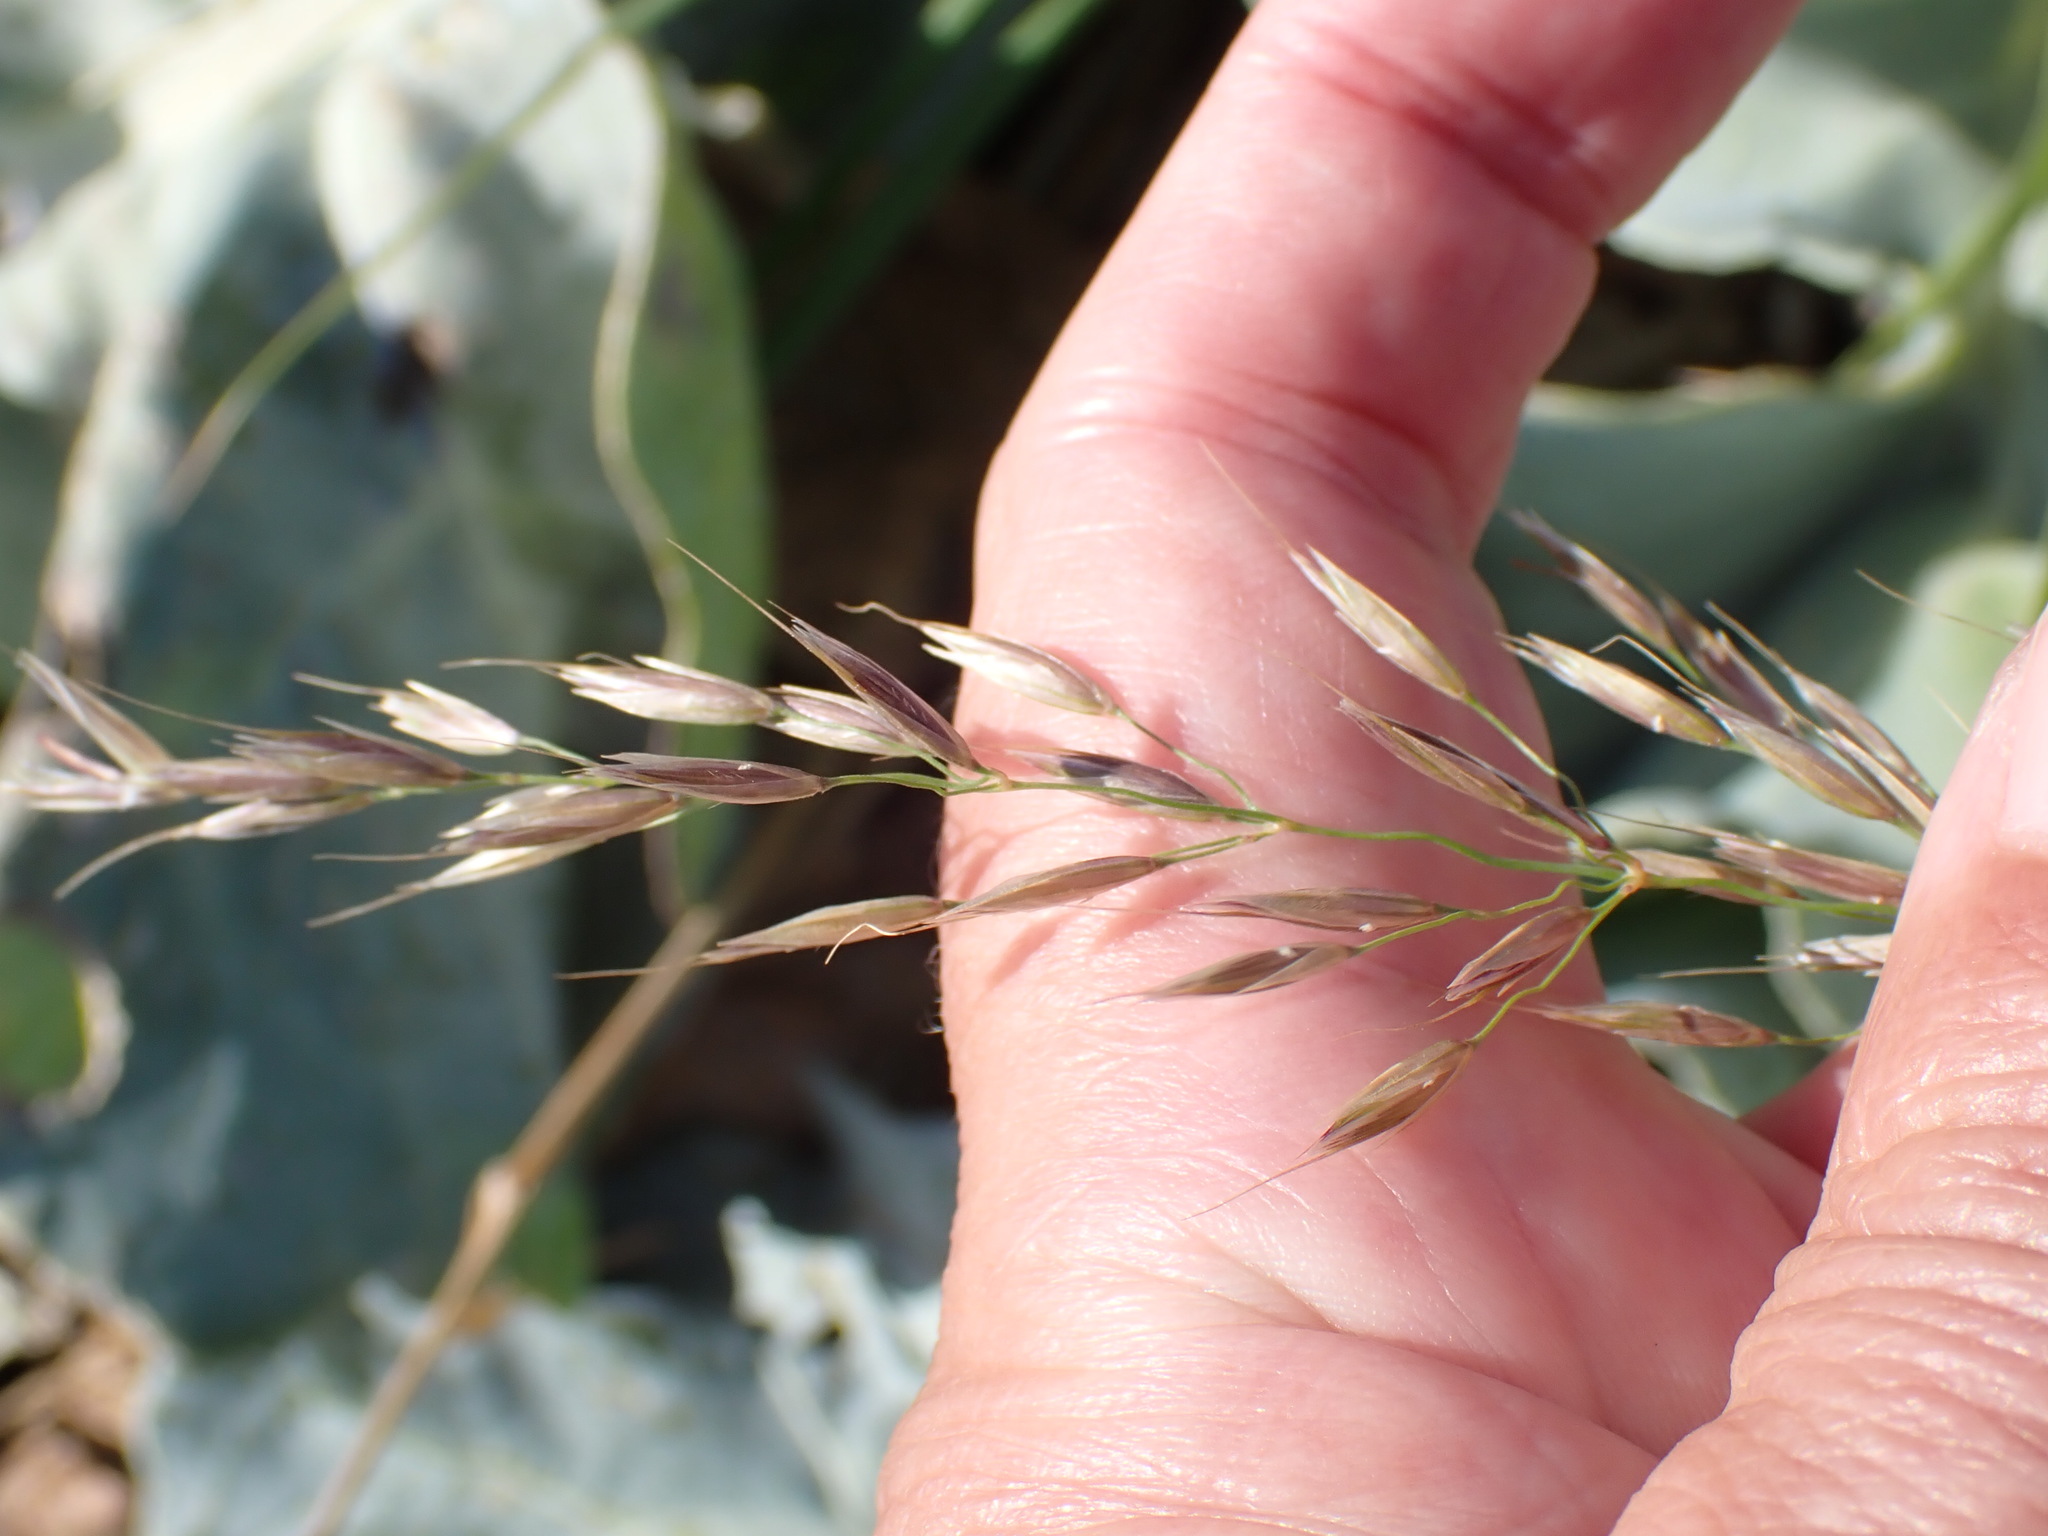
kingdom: Plantae
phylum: Tracheophyta
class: Liliopsida
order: Poales
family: Poaceae
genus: Arrhenatherum
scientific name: Arrhenatherum elatius
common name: Tall oatgrass
